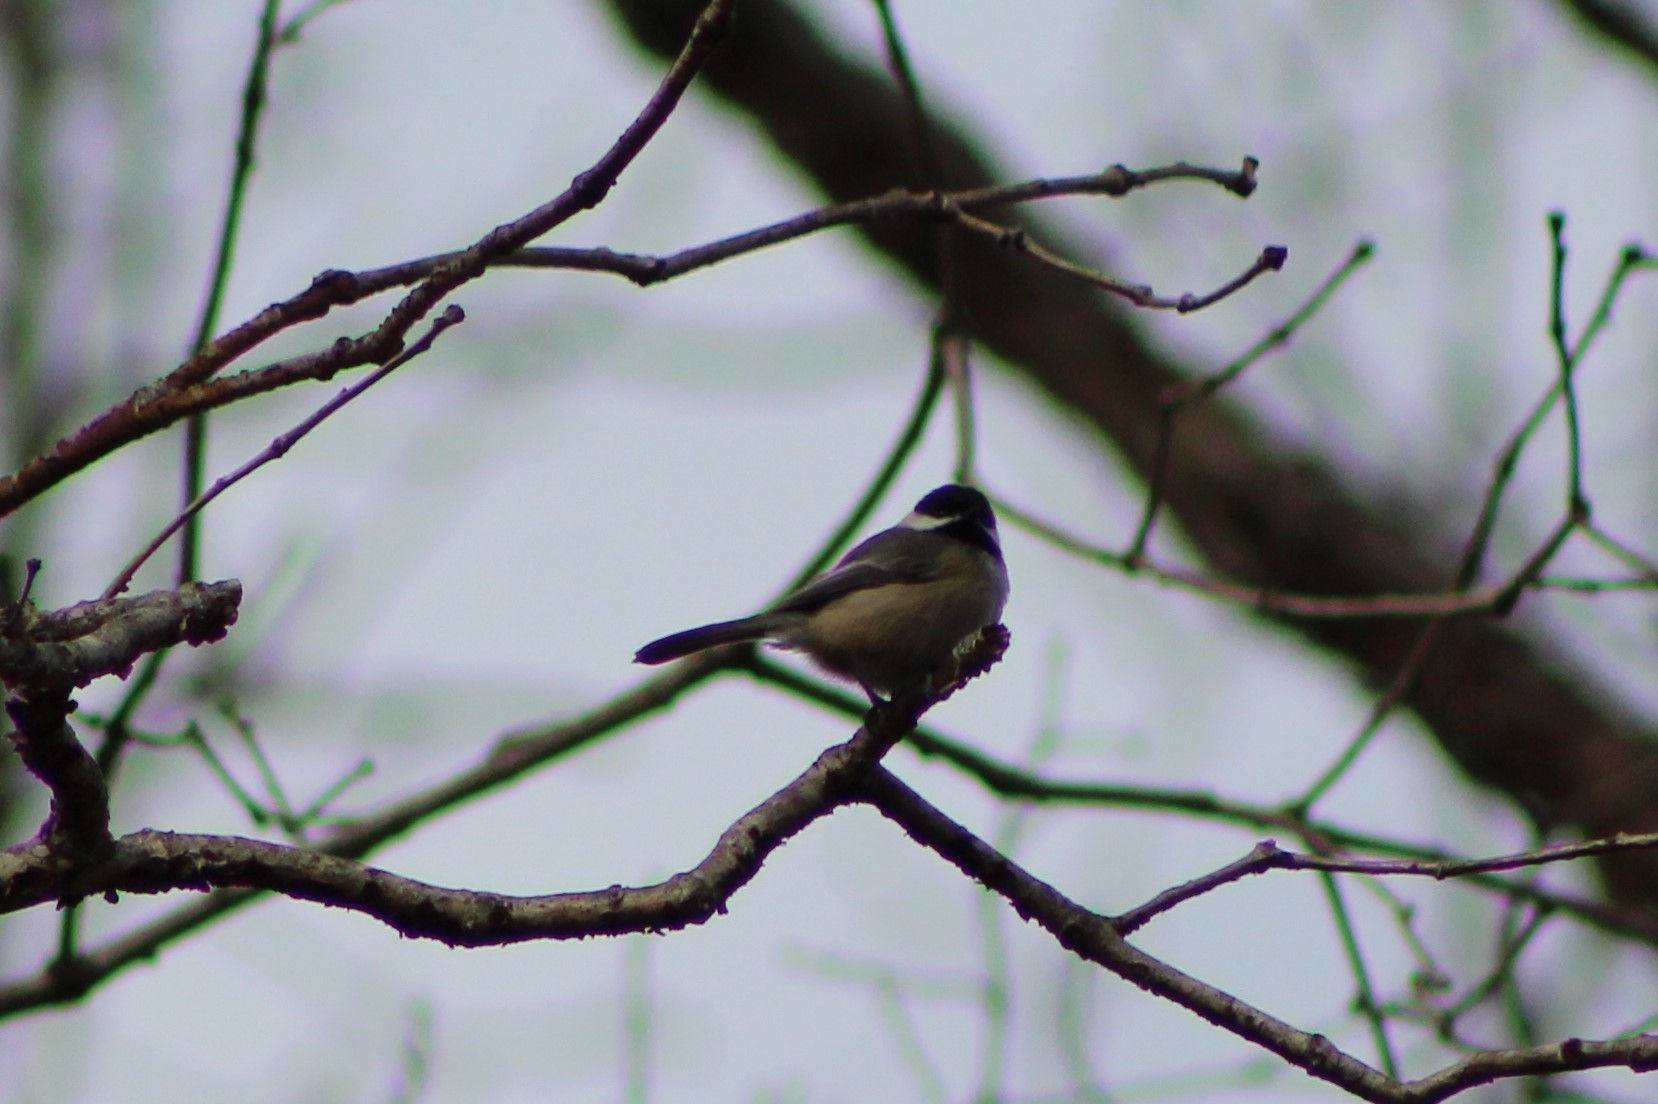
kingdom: Animalia
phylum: Chordata
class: Aves
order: Passeriformes
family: Paridae
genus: Poecile
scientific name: Poecile carolinensis
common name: Carolina chickadee
